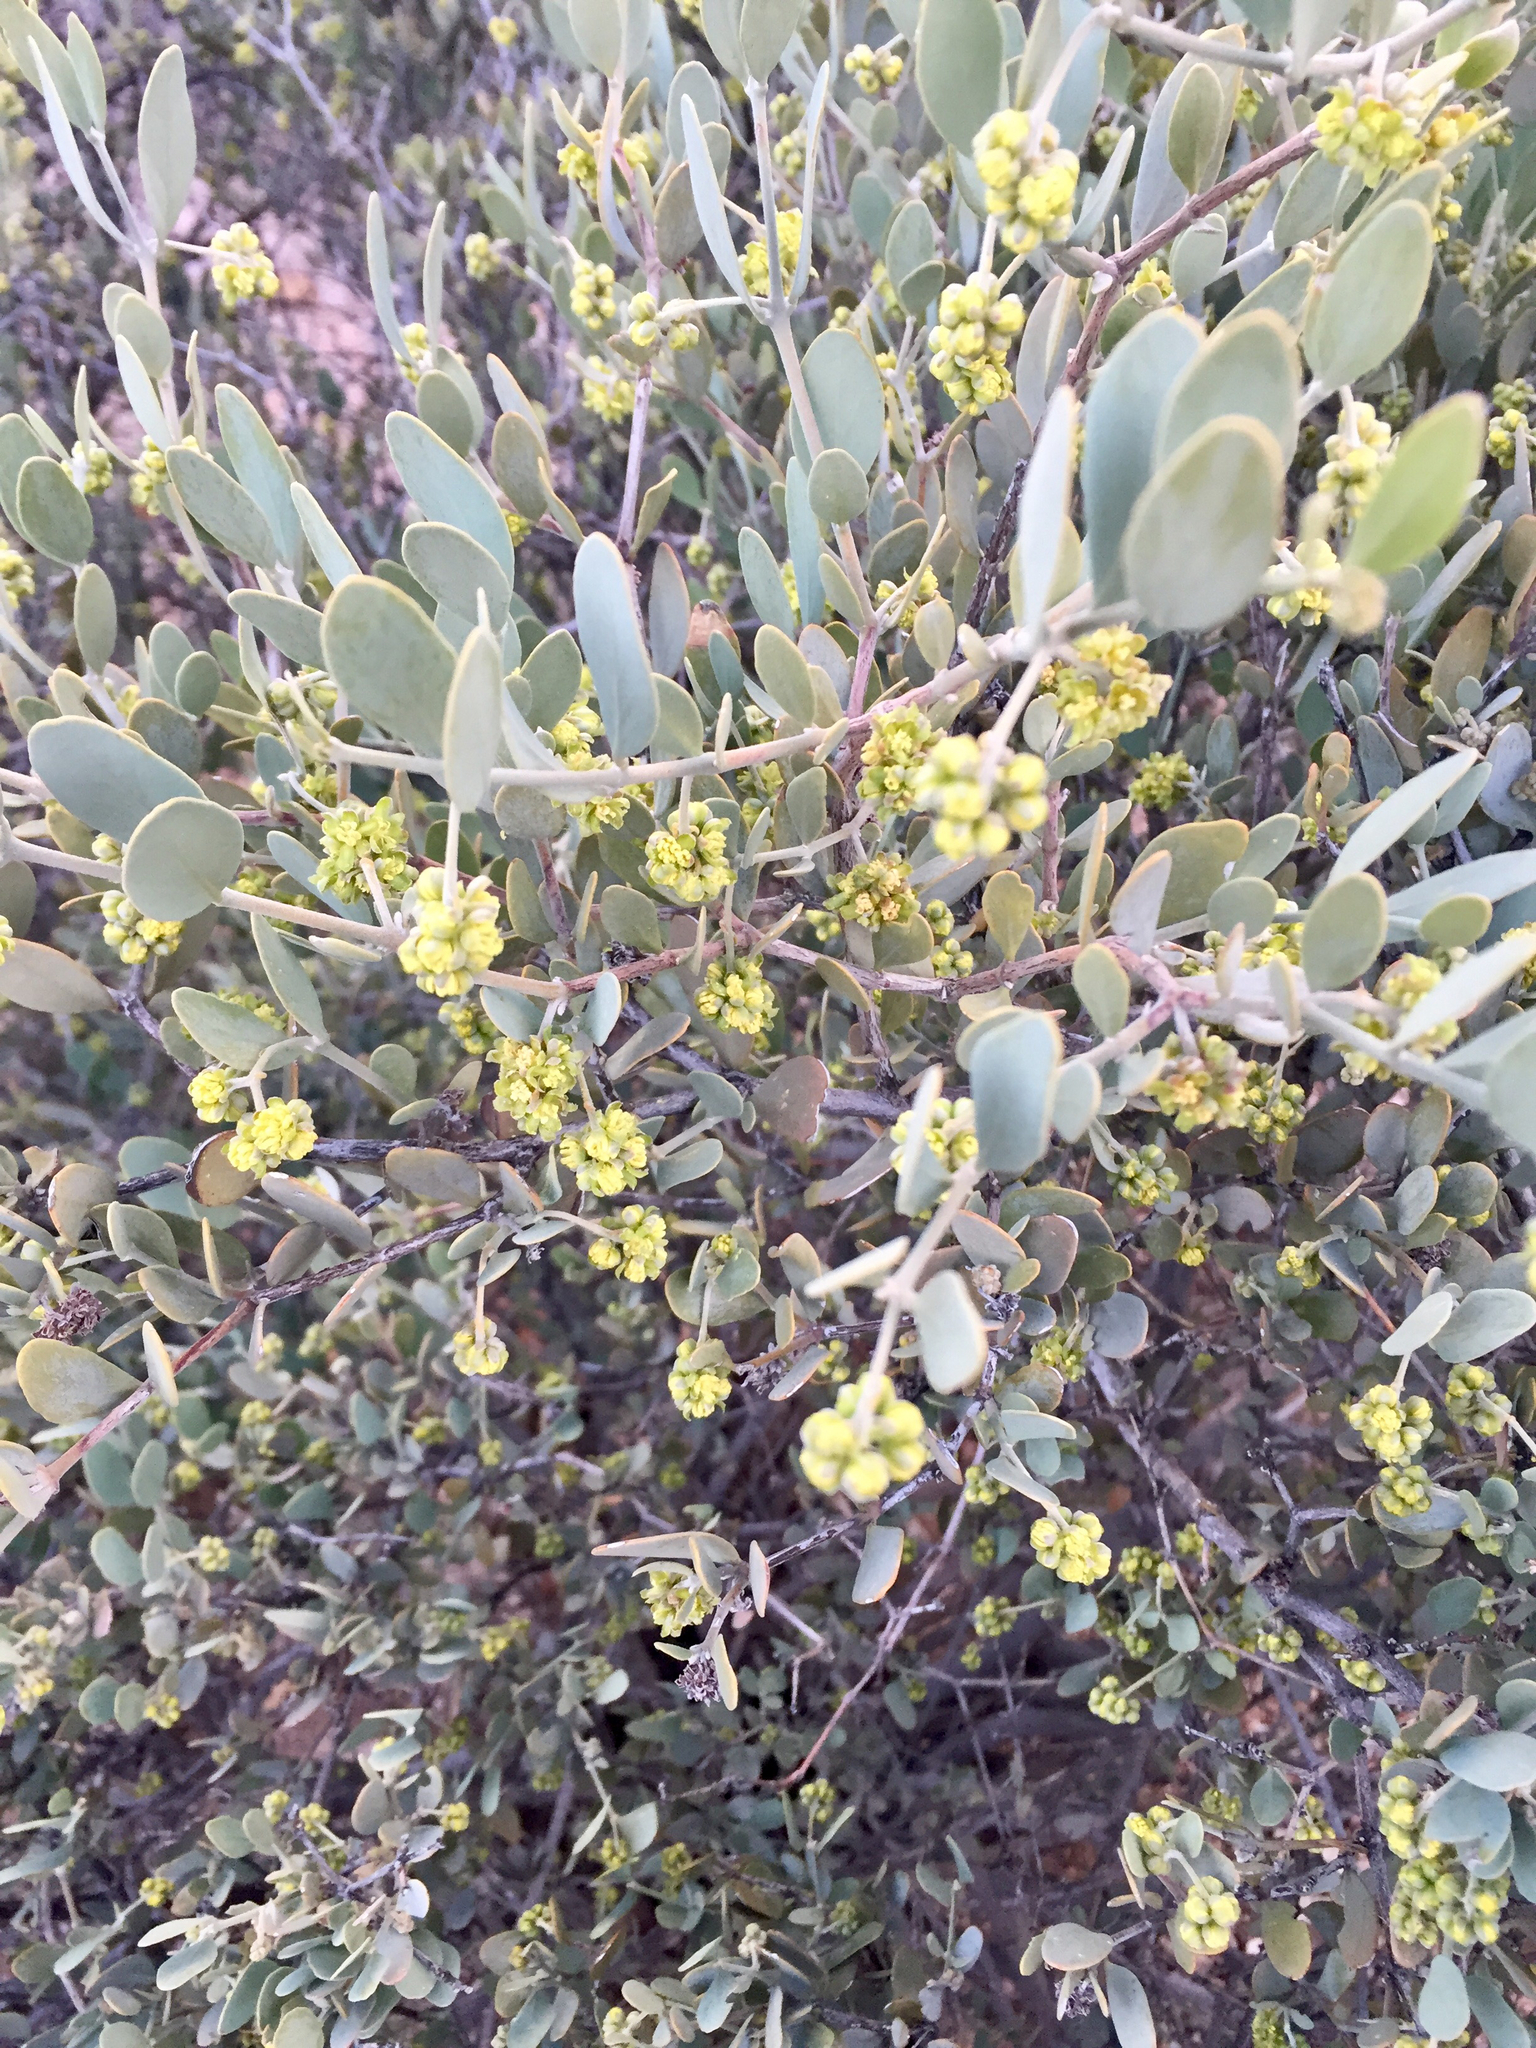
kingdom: Plantae
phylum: Tracheophyta
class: Magnoliopsida
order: Caryophyllales
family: Simmondsiaceae
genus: Simmondsia
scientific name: Simmondsia chinensis
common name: Jojoba
